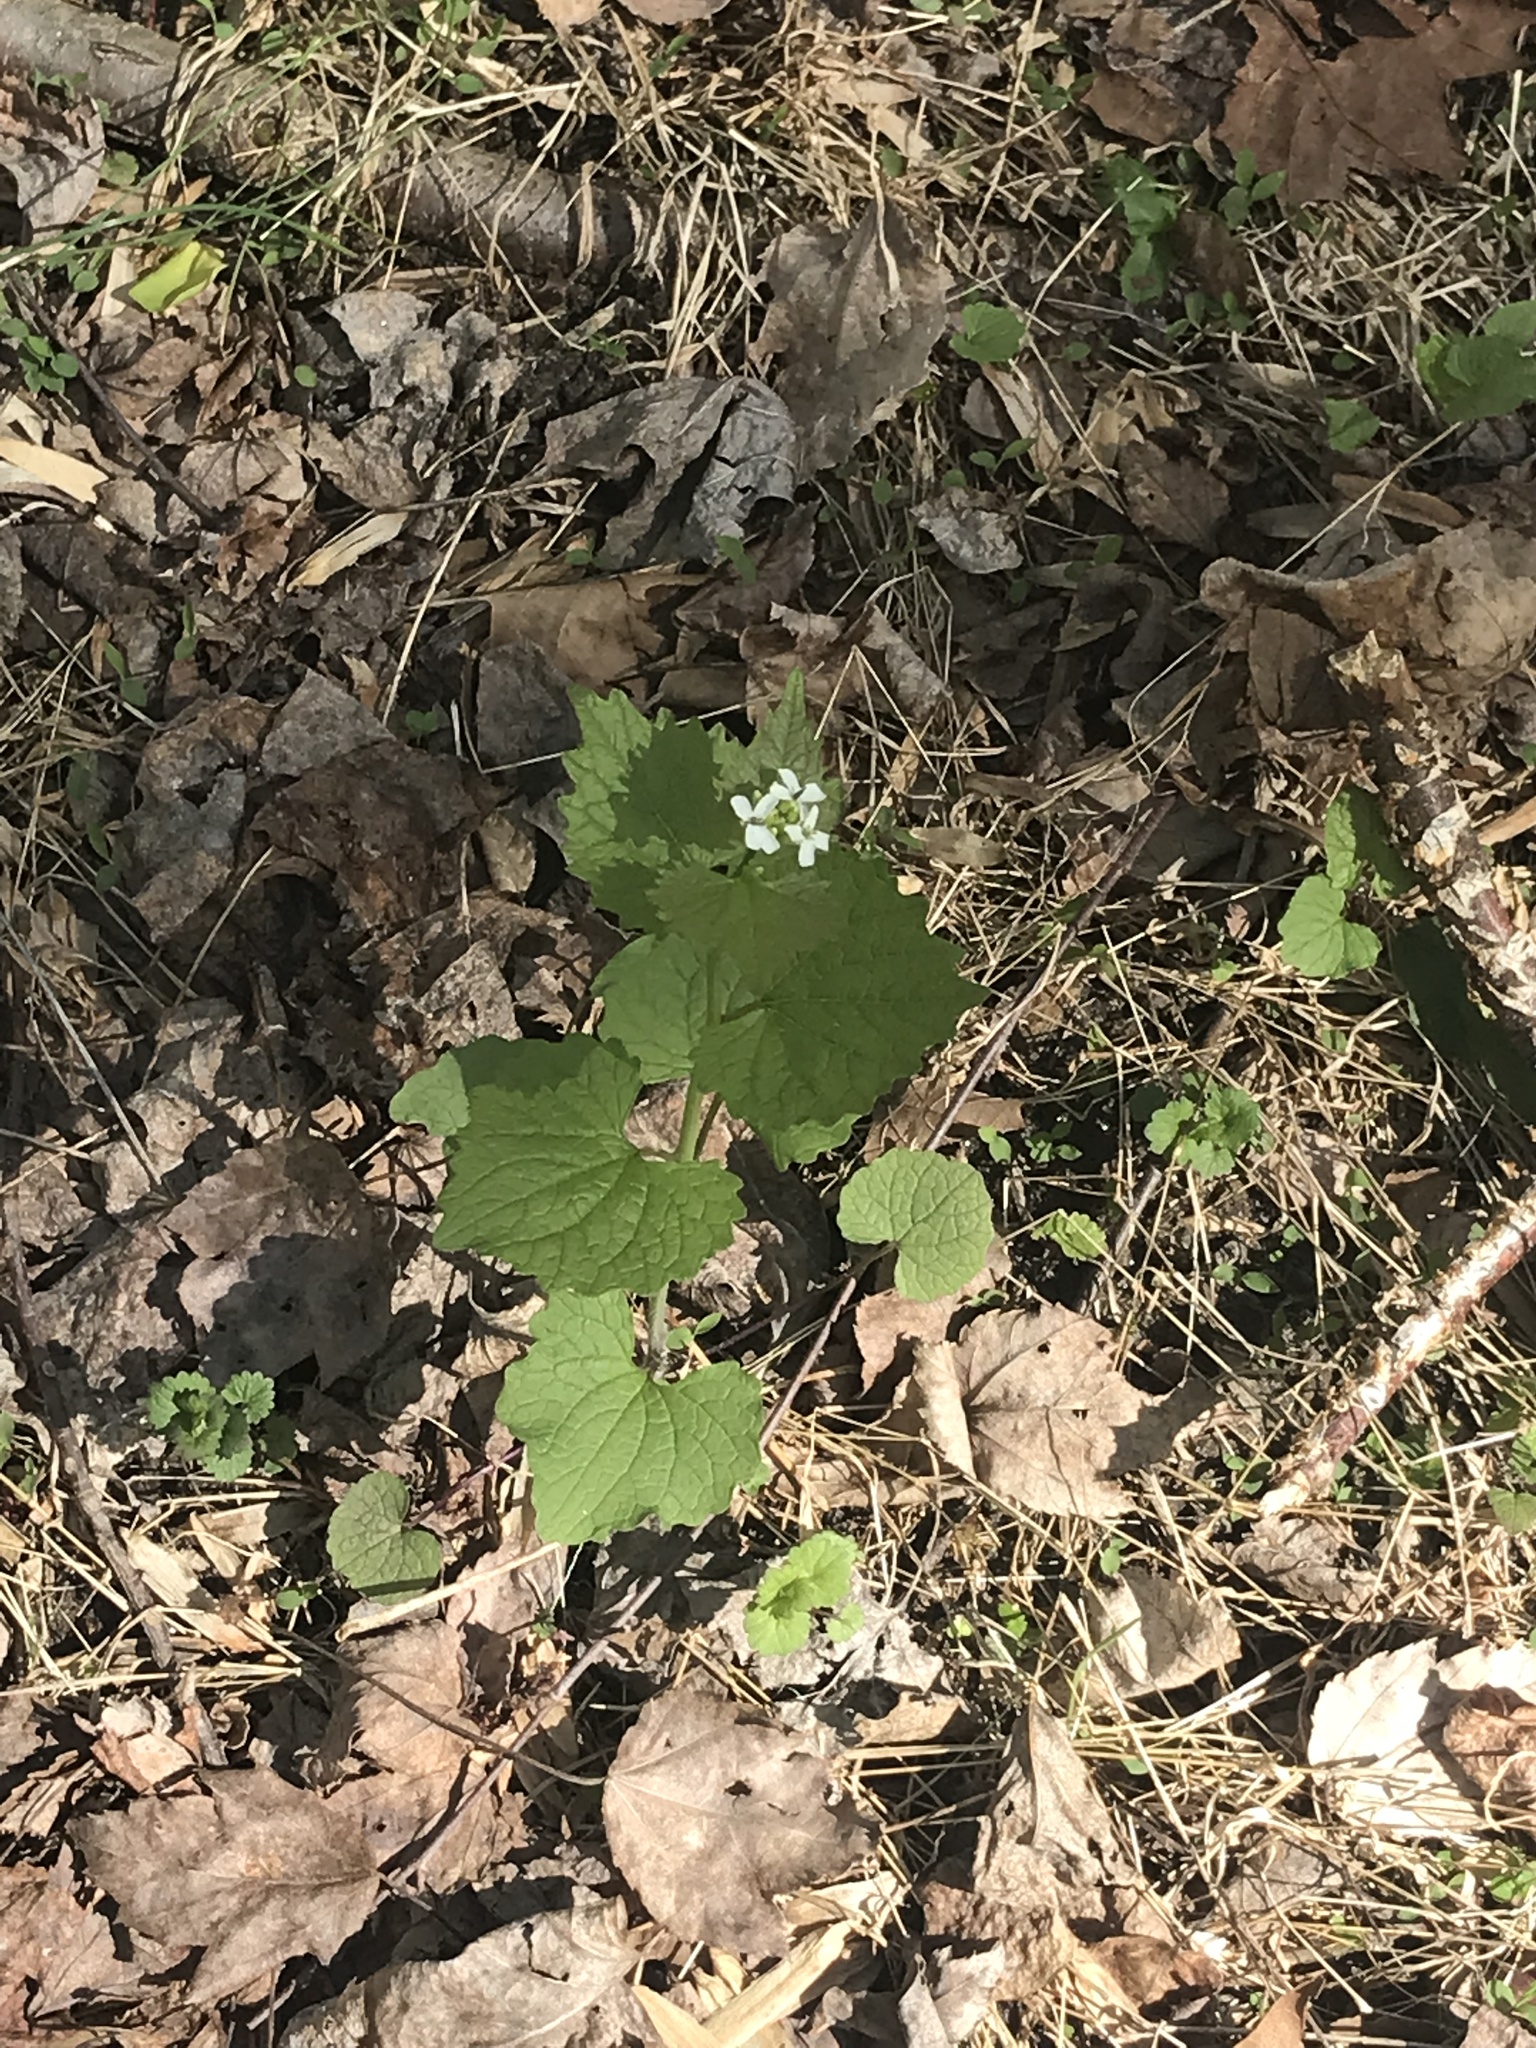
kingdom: Plantae
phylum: Tracheophyta
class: Magnoliopsida
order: Brassicales
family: Brassicaceae
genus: Alliaria
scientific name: Alliaria petiolata
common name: Garlic mustard
